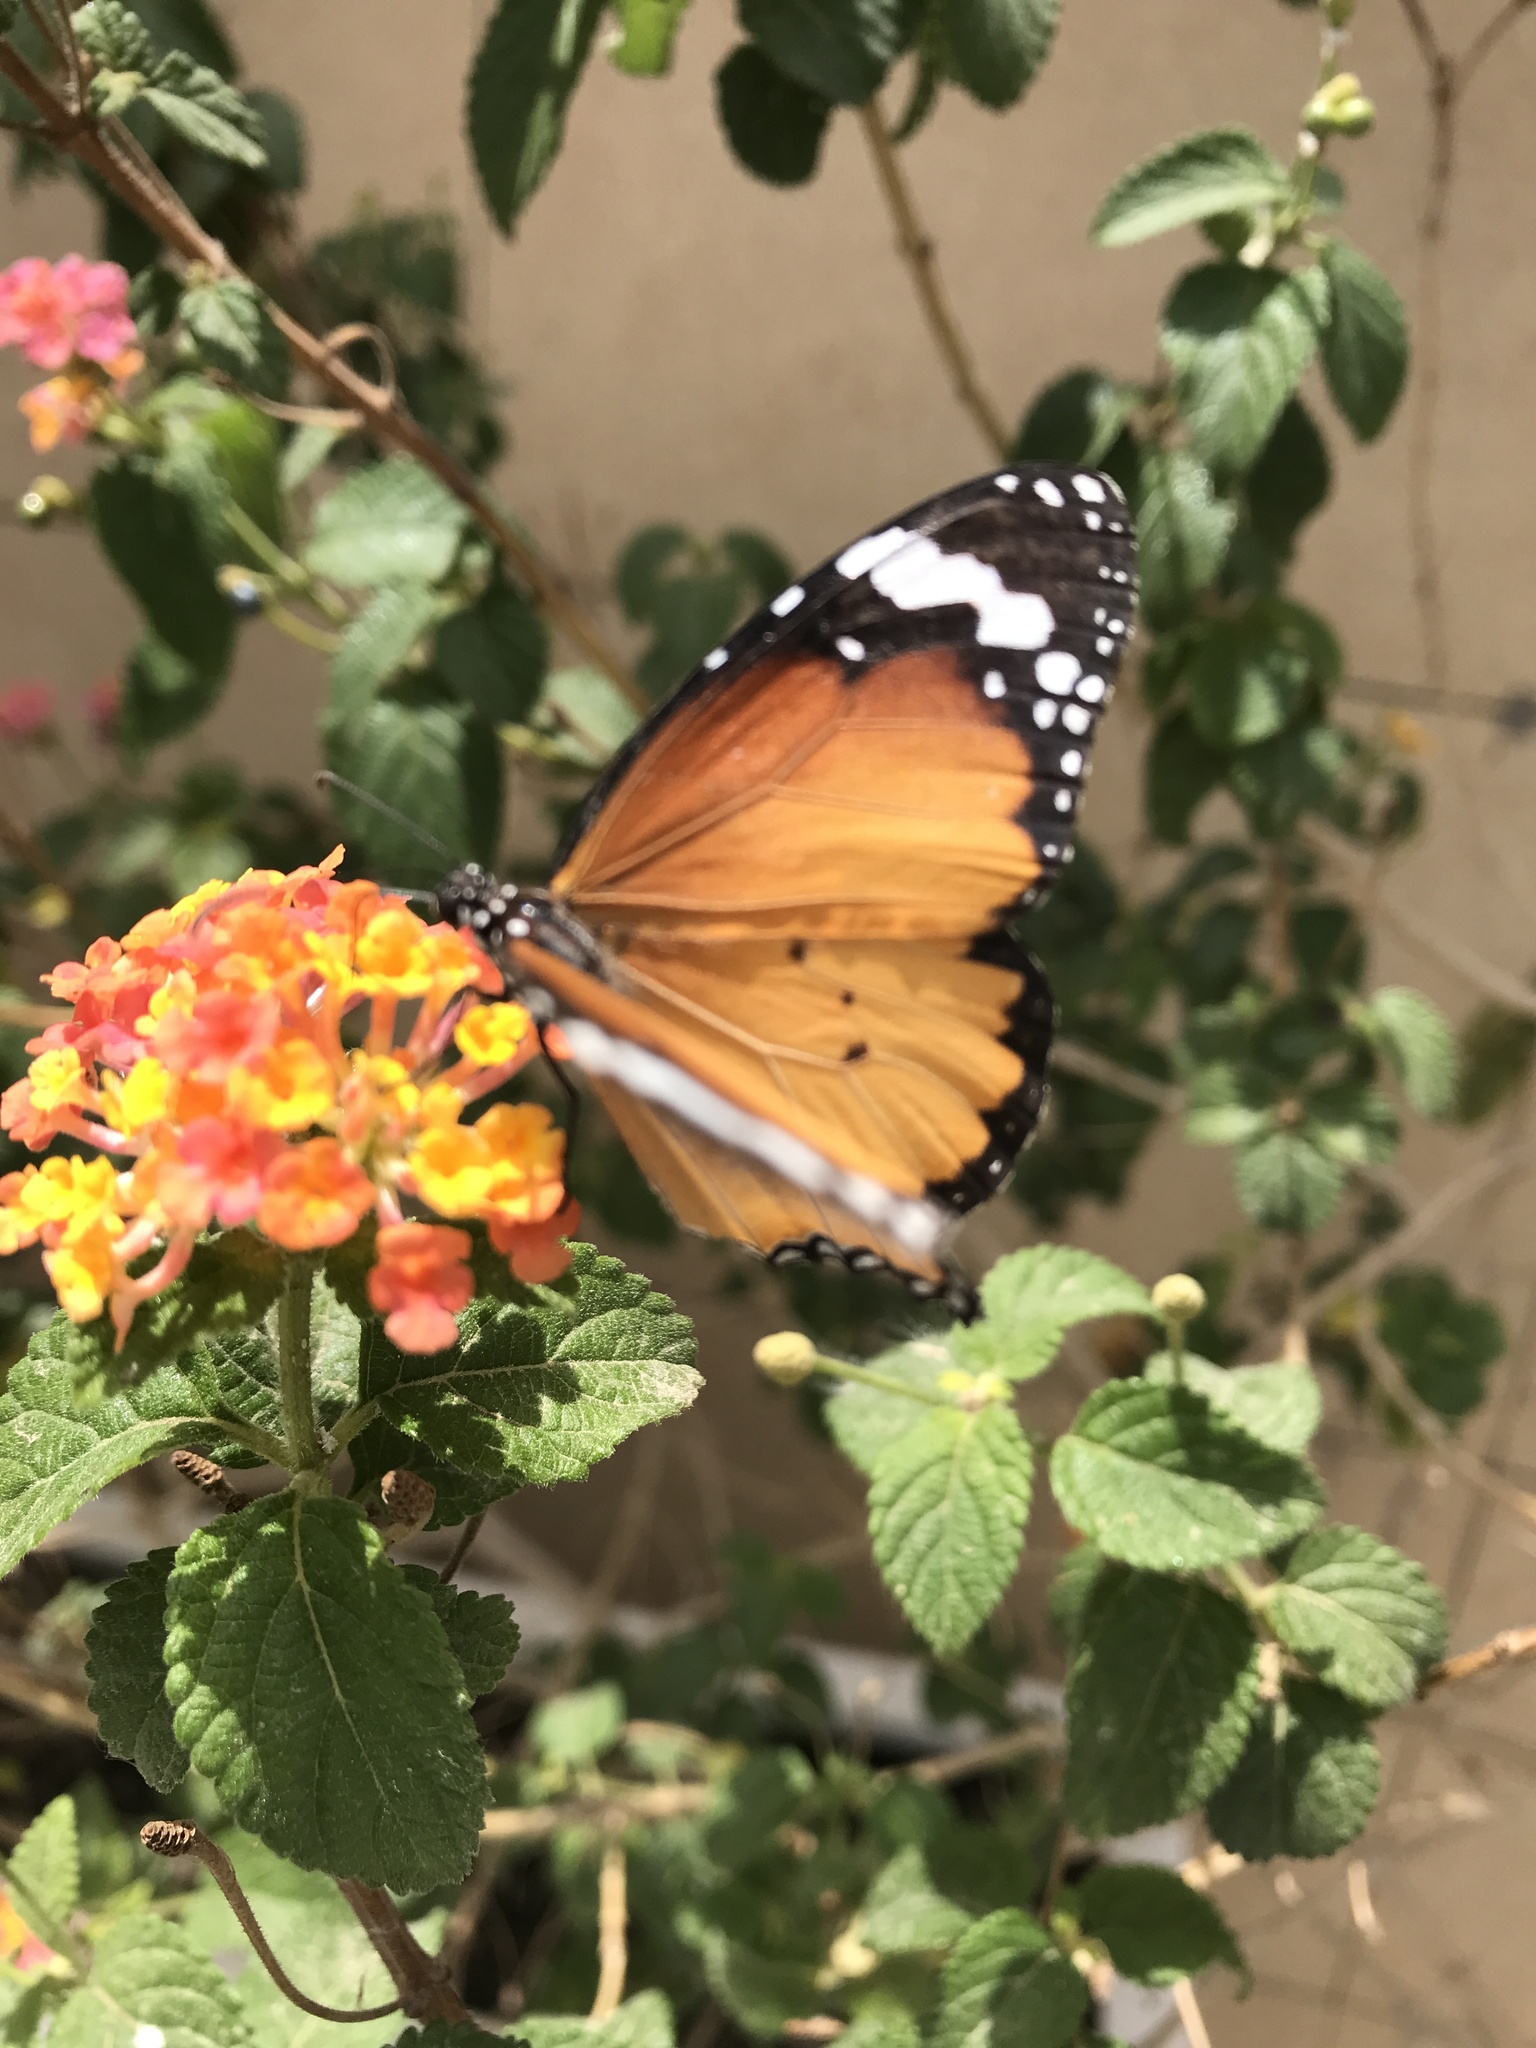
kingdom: Animalia
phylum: Arthropoda
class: Insecta
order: Lepidoptera
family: Nymphalidae
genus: Danaus
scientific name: Danaus chrysippus
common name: Plain tiger
